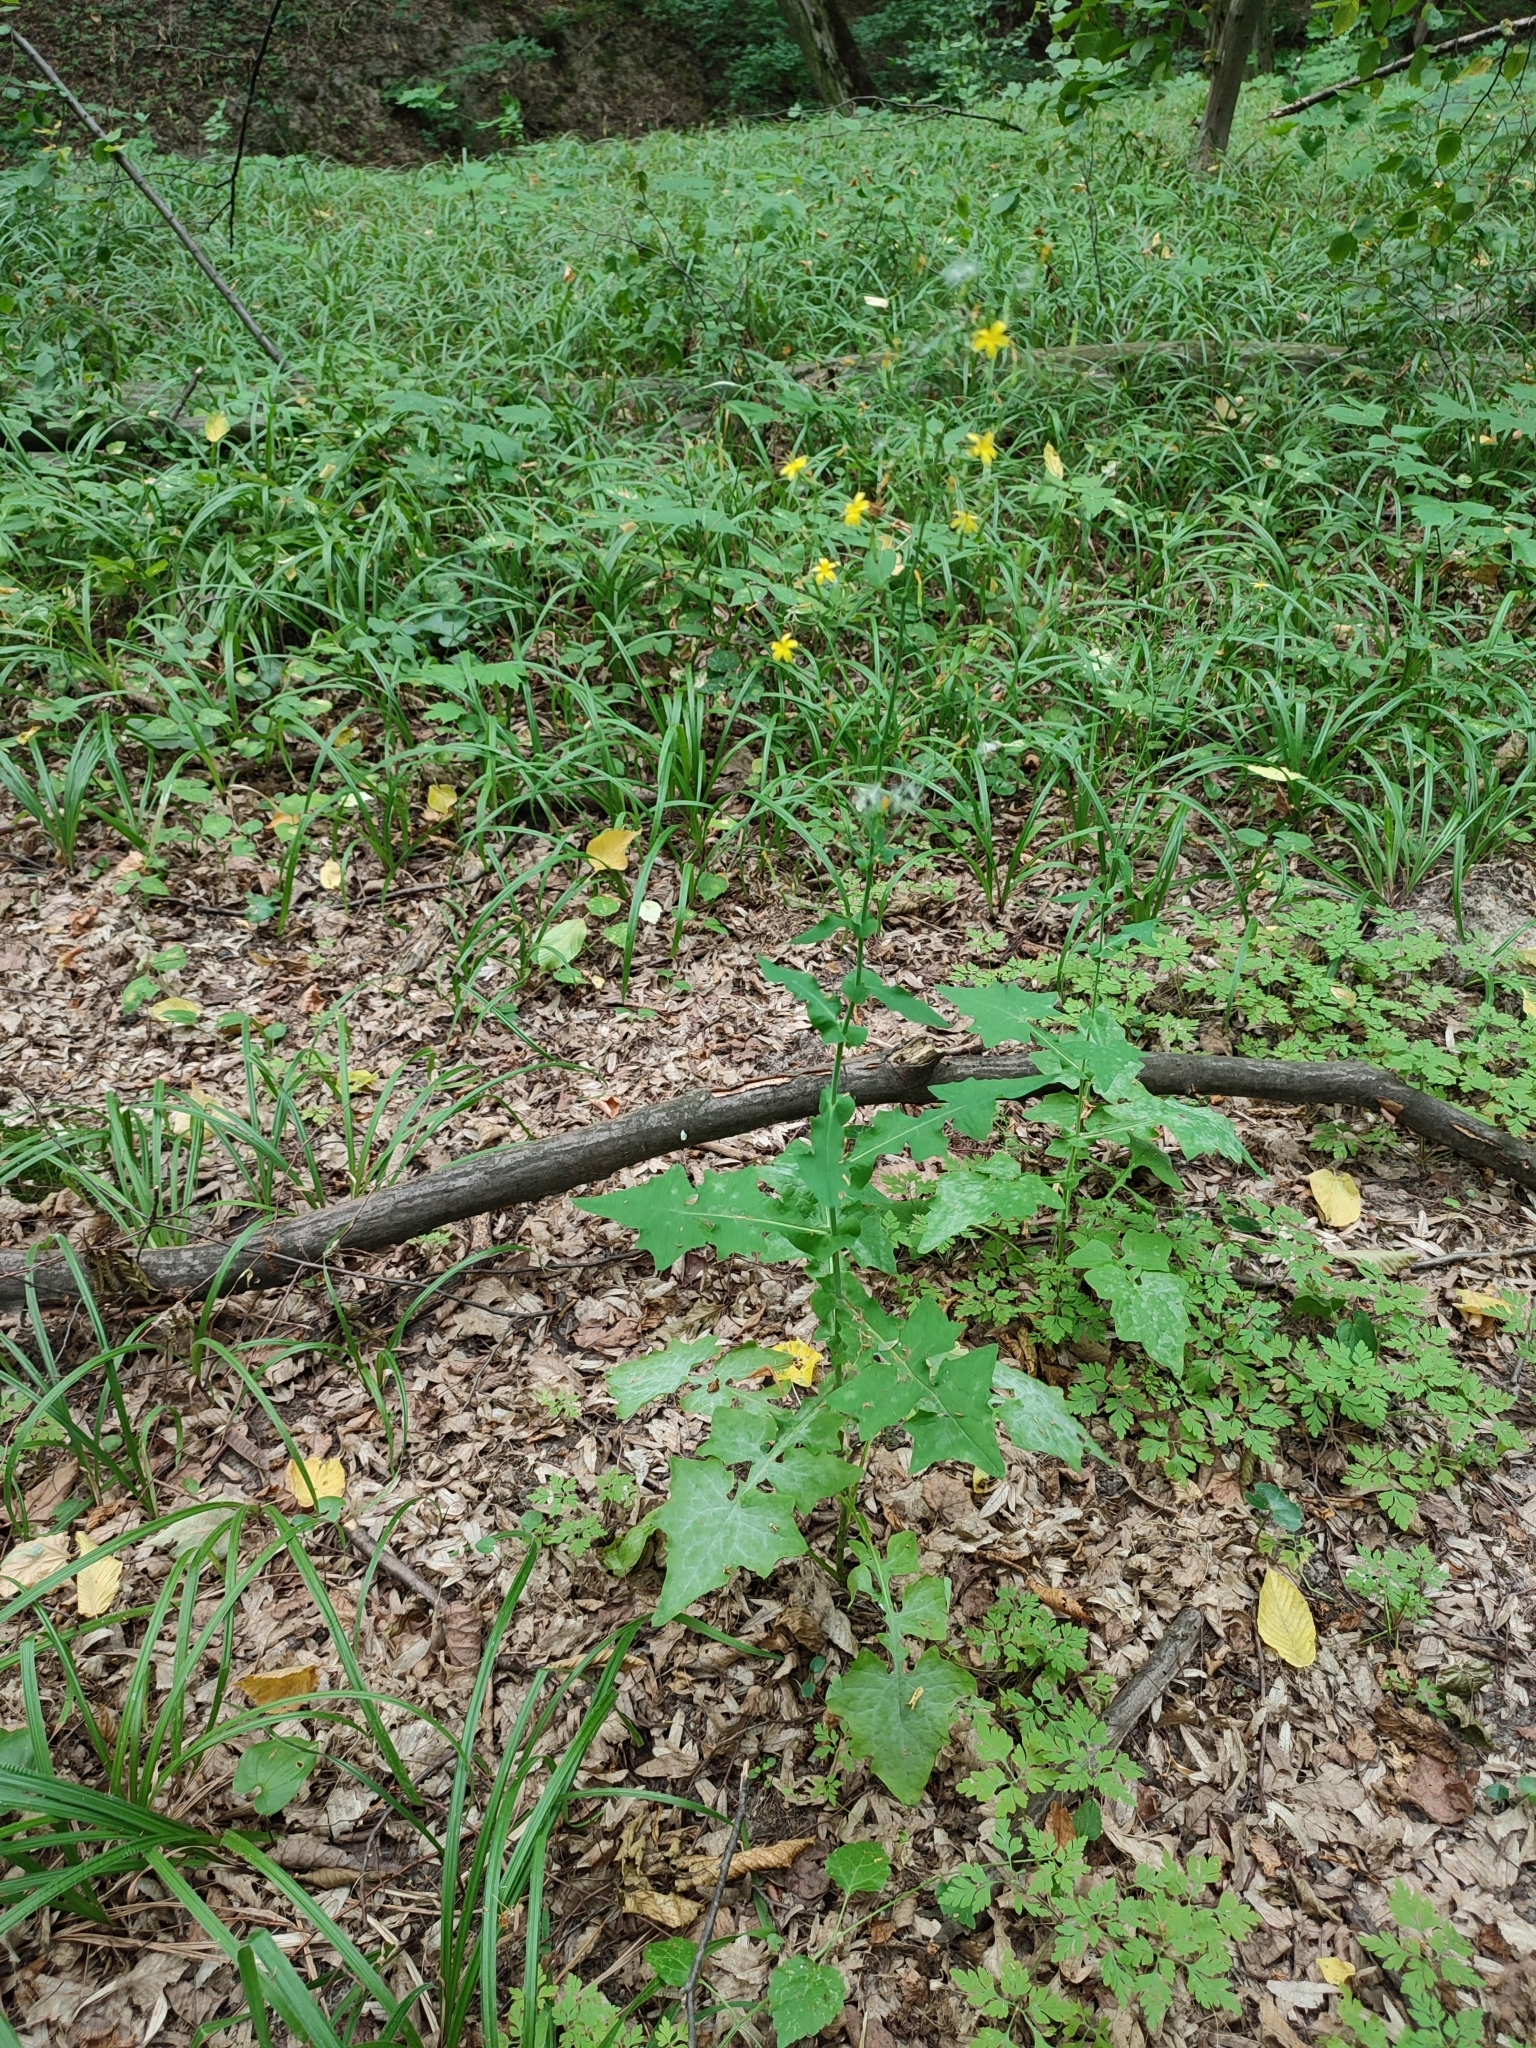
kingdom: Plantae
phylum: Tracheophyta
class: Magnoliopsida
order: Asterales
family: Asteraceae
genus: Mycelis
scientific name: Mycelis muralis
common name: Wall lettuce
